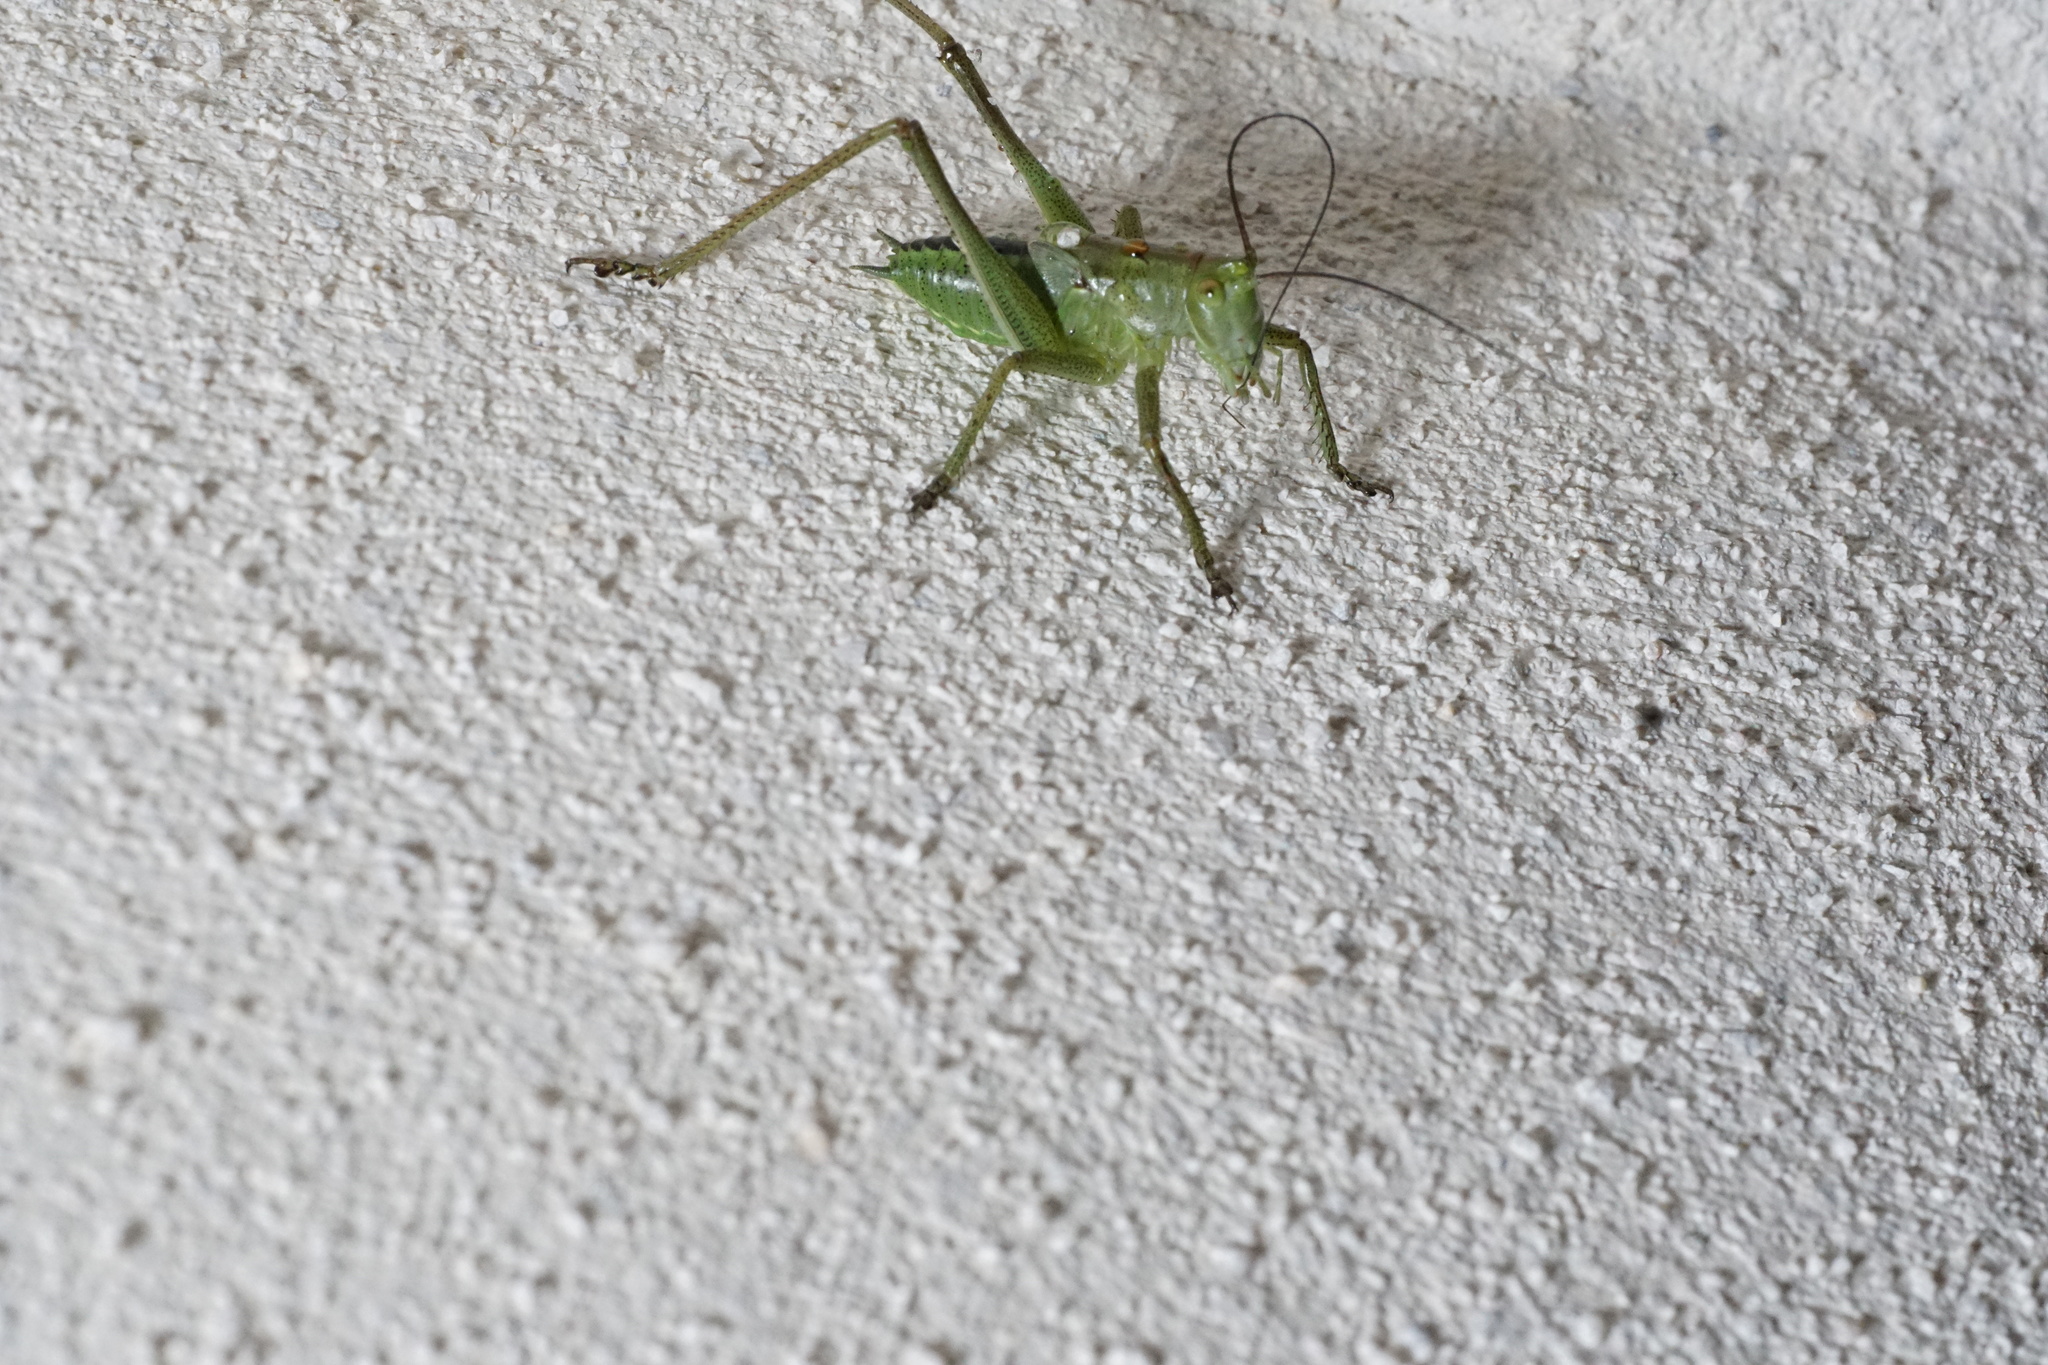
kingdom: Animalia
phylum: Arthropoda
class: Insecta
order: Orthoptera
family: Tettigoniidae
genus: Tettigonia
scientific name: Tettigonia viridissima
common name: Great green bush-cricket
